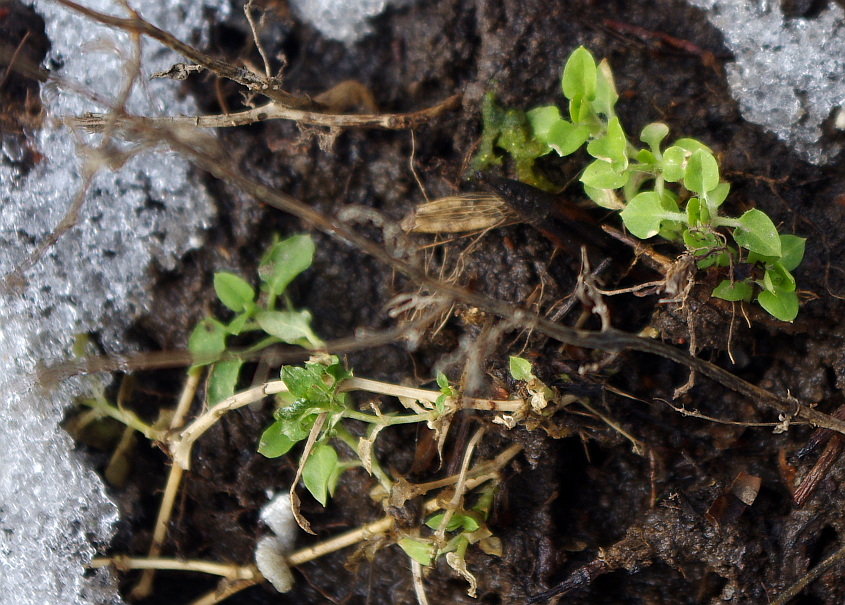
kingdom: Plantae
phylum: Tracheophyta
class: Magnoliopsida
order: Caryophyllales
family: Caryophyllaceae
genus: Stellaria
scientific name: Stellaria media
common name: Common chickweed
